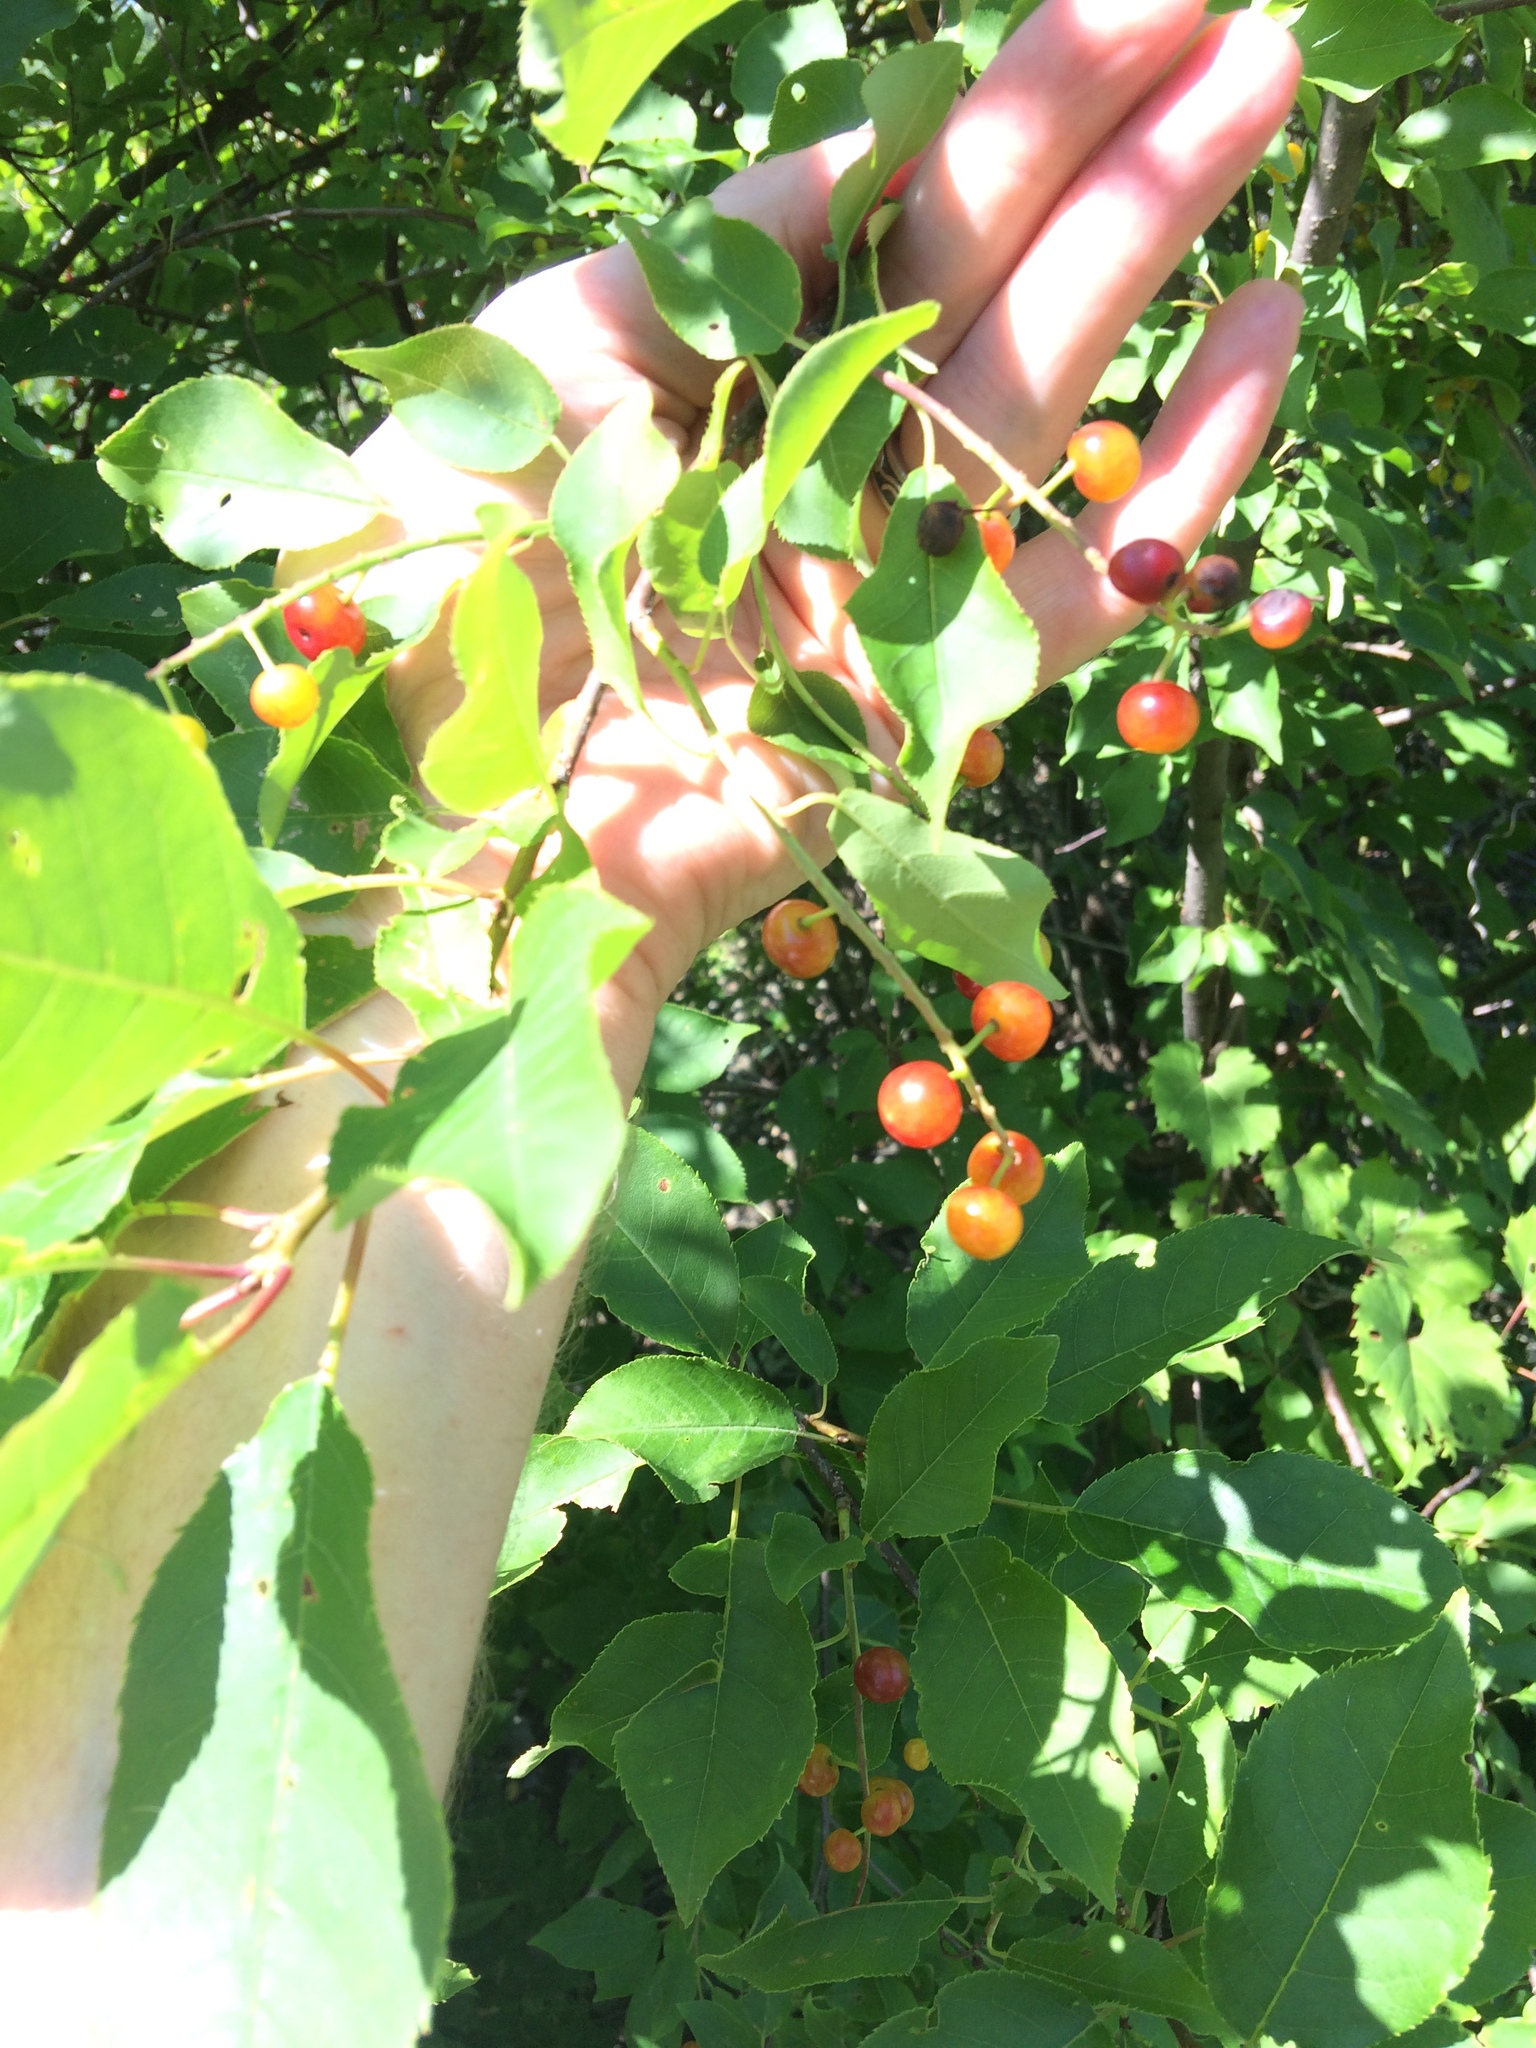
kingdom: Plantae
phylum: Tracheophyta
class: Magnoliopsida
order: Rosales
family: Rosaceae
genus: Prunus
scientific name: Prunus virginiana
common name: Chokecherry
